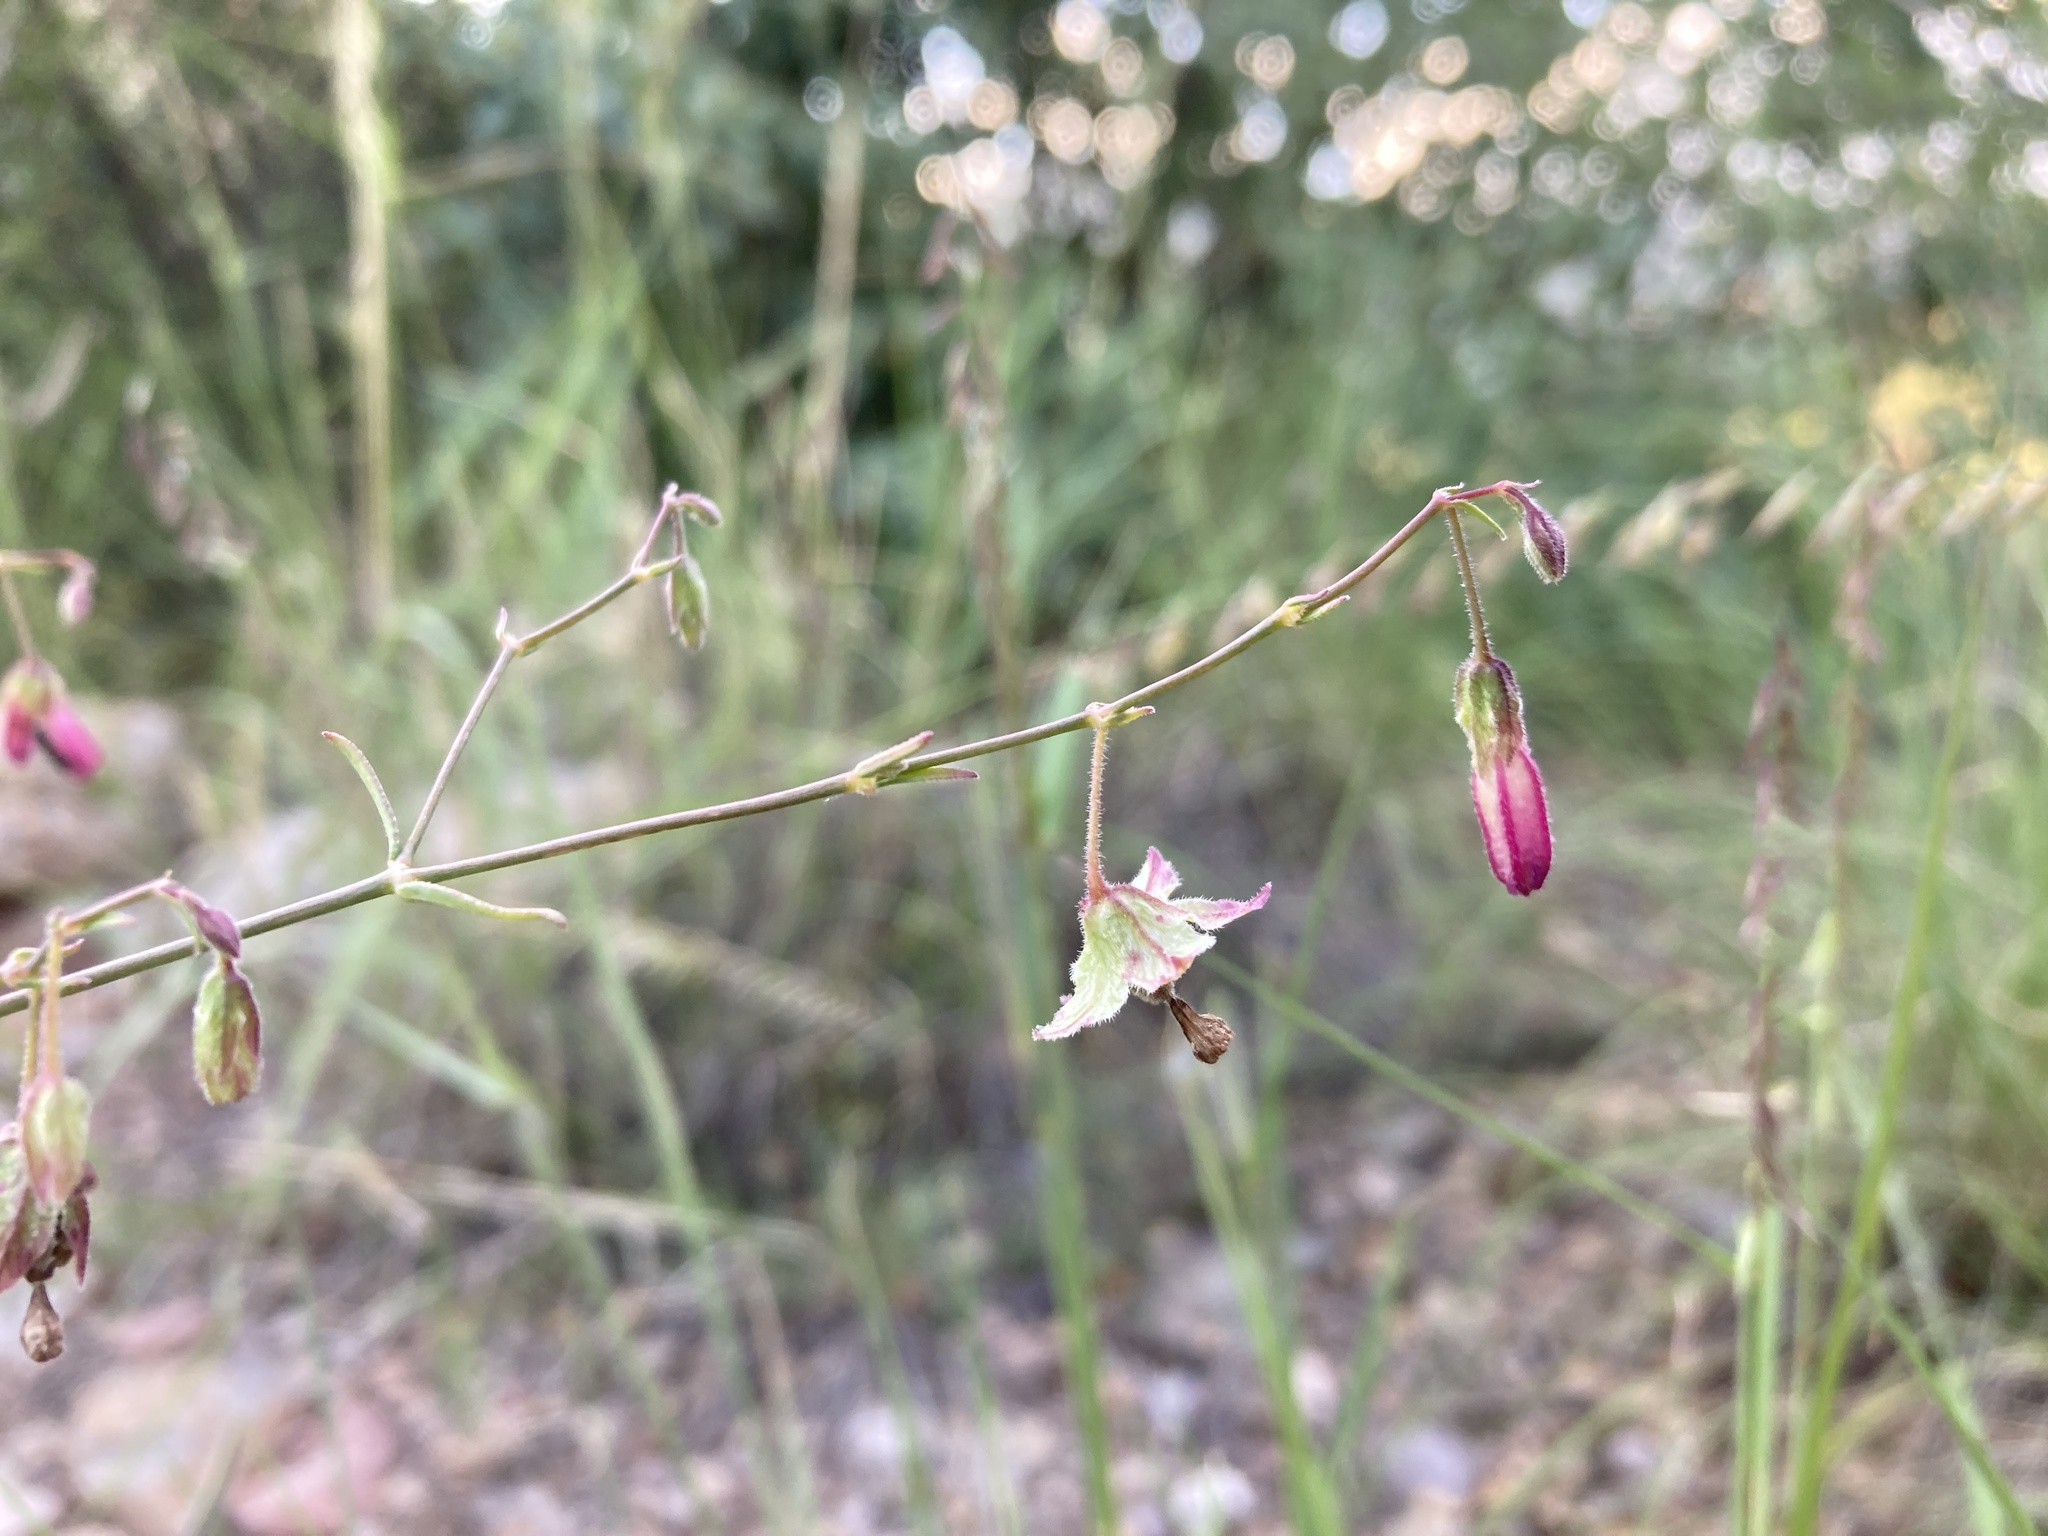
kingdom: Plantae
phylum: Tracheophyta
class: Magnoliopsida
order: Caryophyllales
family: Nyctaginaceae
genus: Mirabilis
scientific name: Mirabilis coccinea
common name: Scarlet four-o'clock
